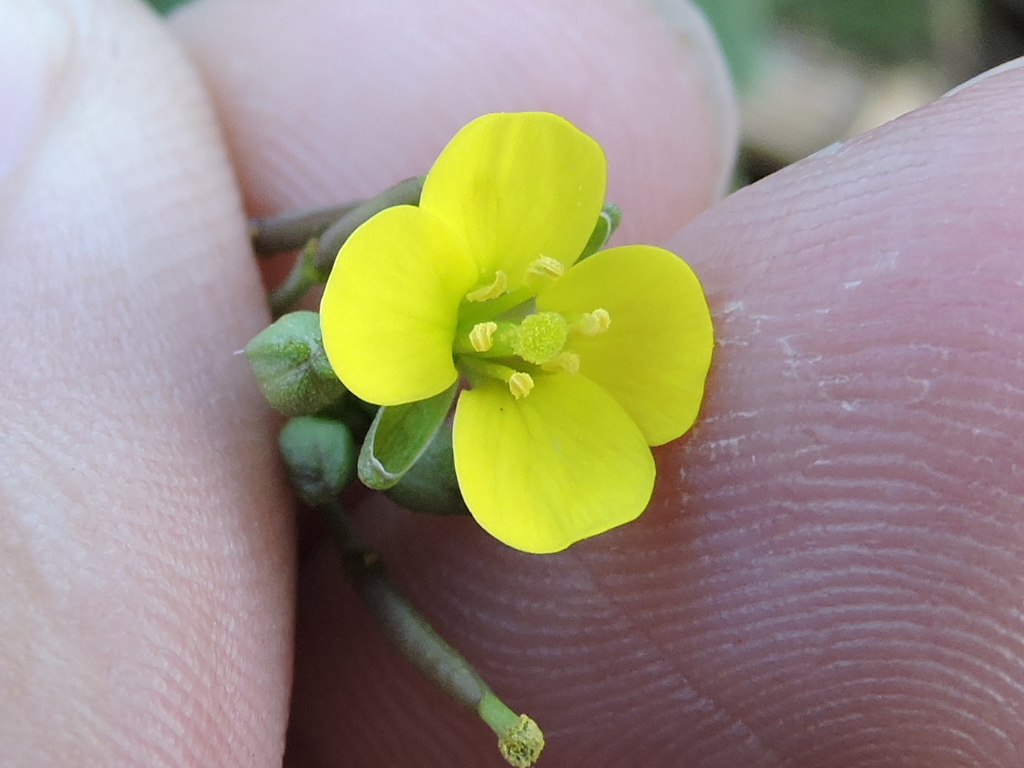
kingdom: Plantae
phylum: Tracheophyta
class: Magnoliopsida
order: Brassicales
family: Brassicaceae
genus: Diplotaxis
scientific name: Diplotaxis muralis
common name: Annual wall-rocket
